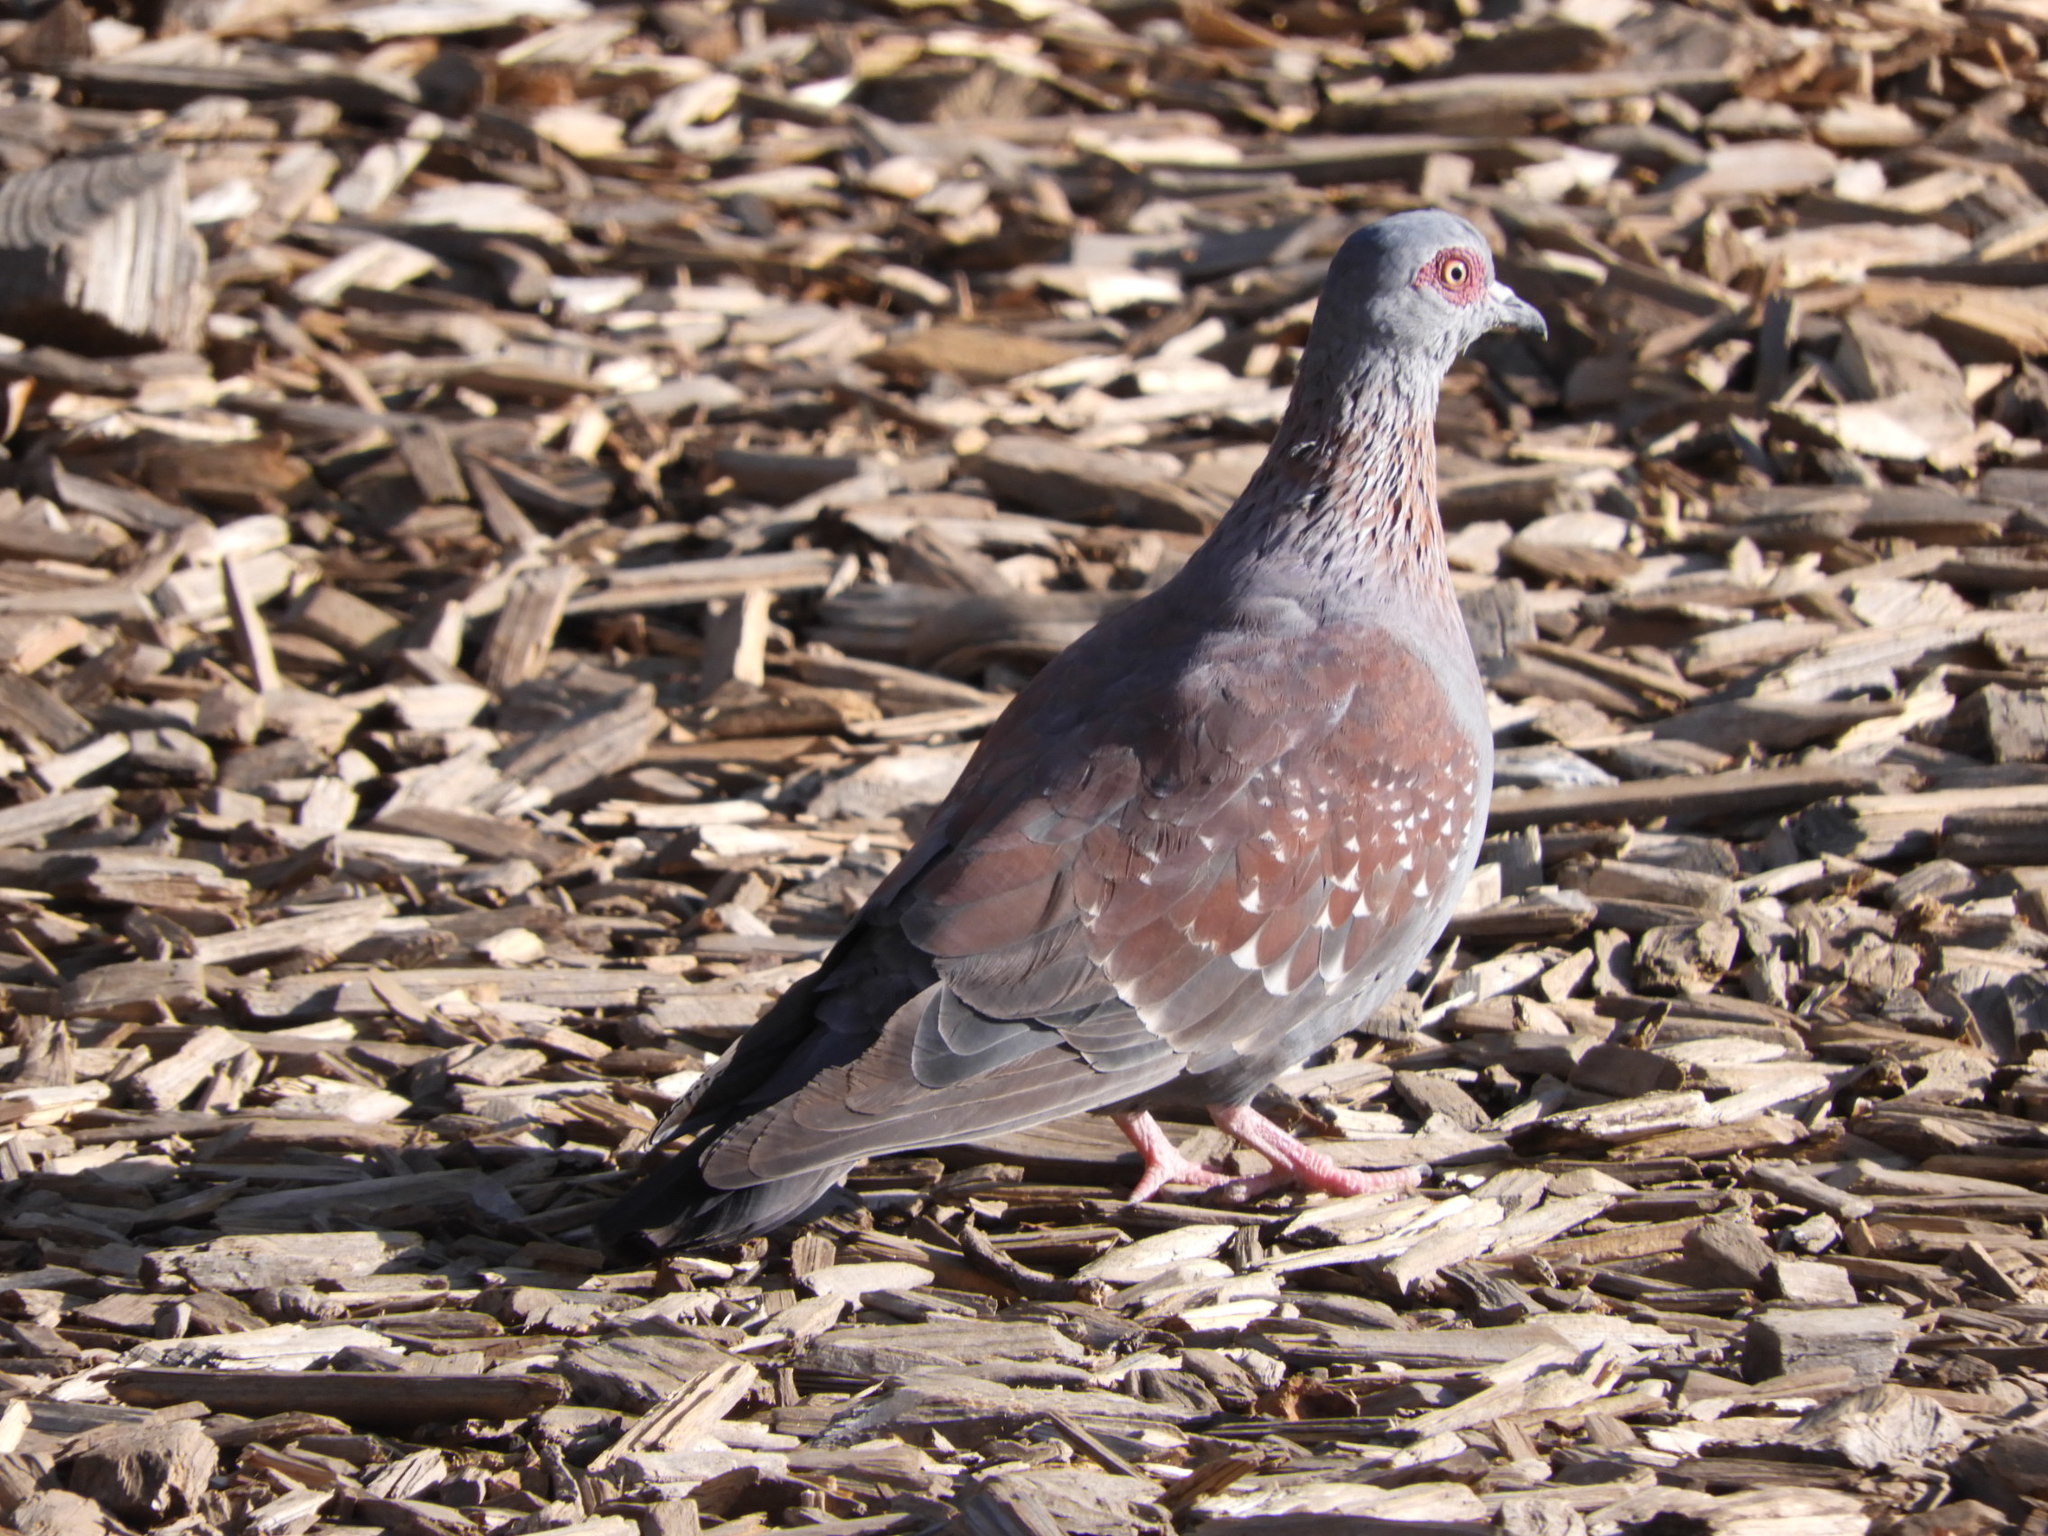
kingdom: Animalia
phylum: Chordata
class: Aves
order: Columbiformes
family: Columbidae
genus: Columba
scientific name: Columba guinea
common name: Speckled pigeon
